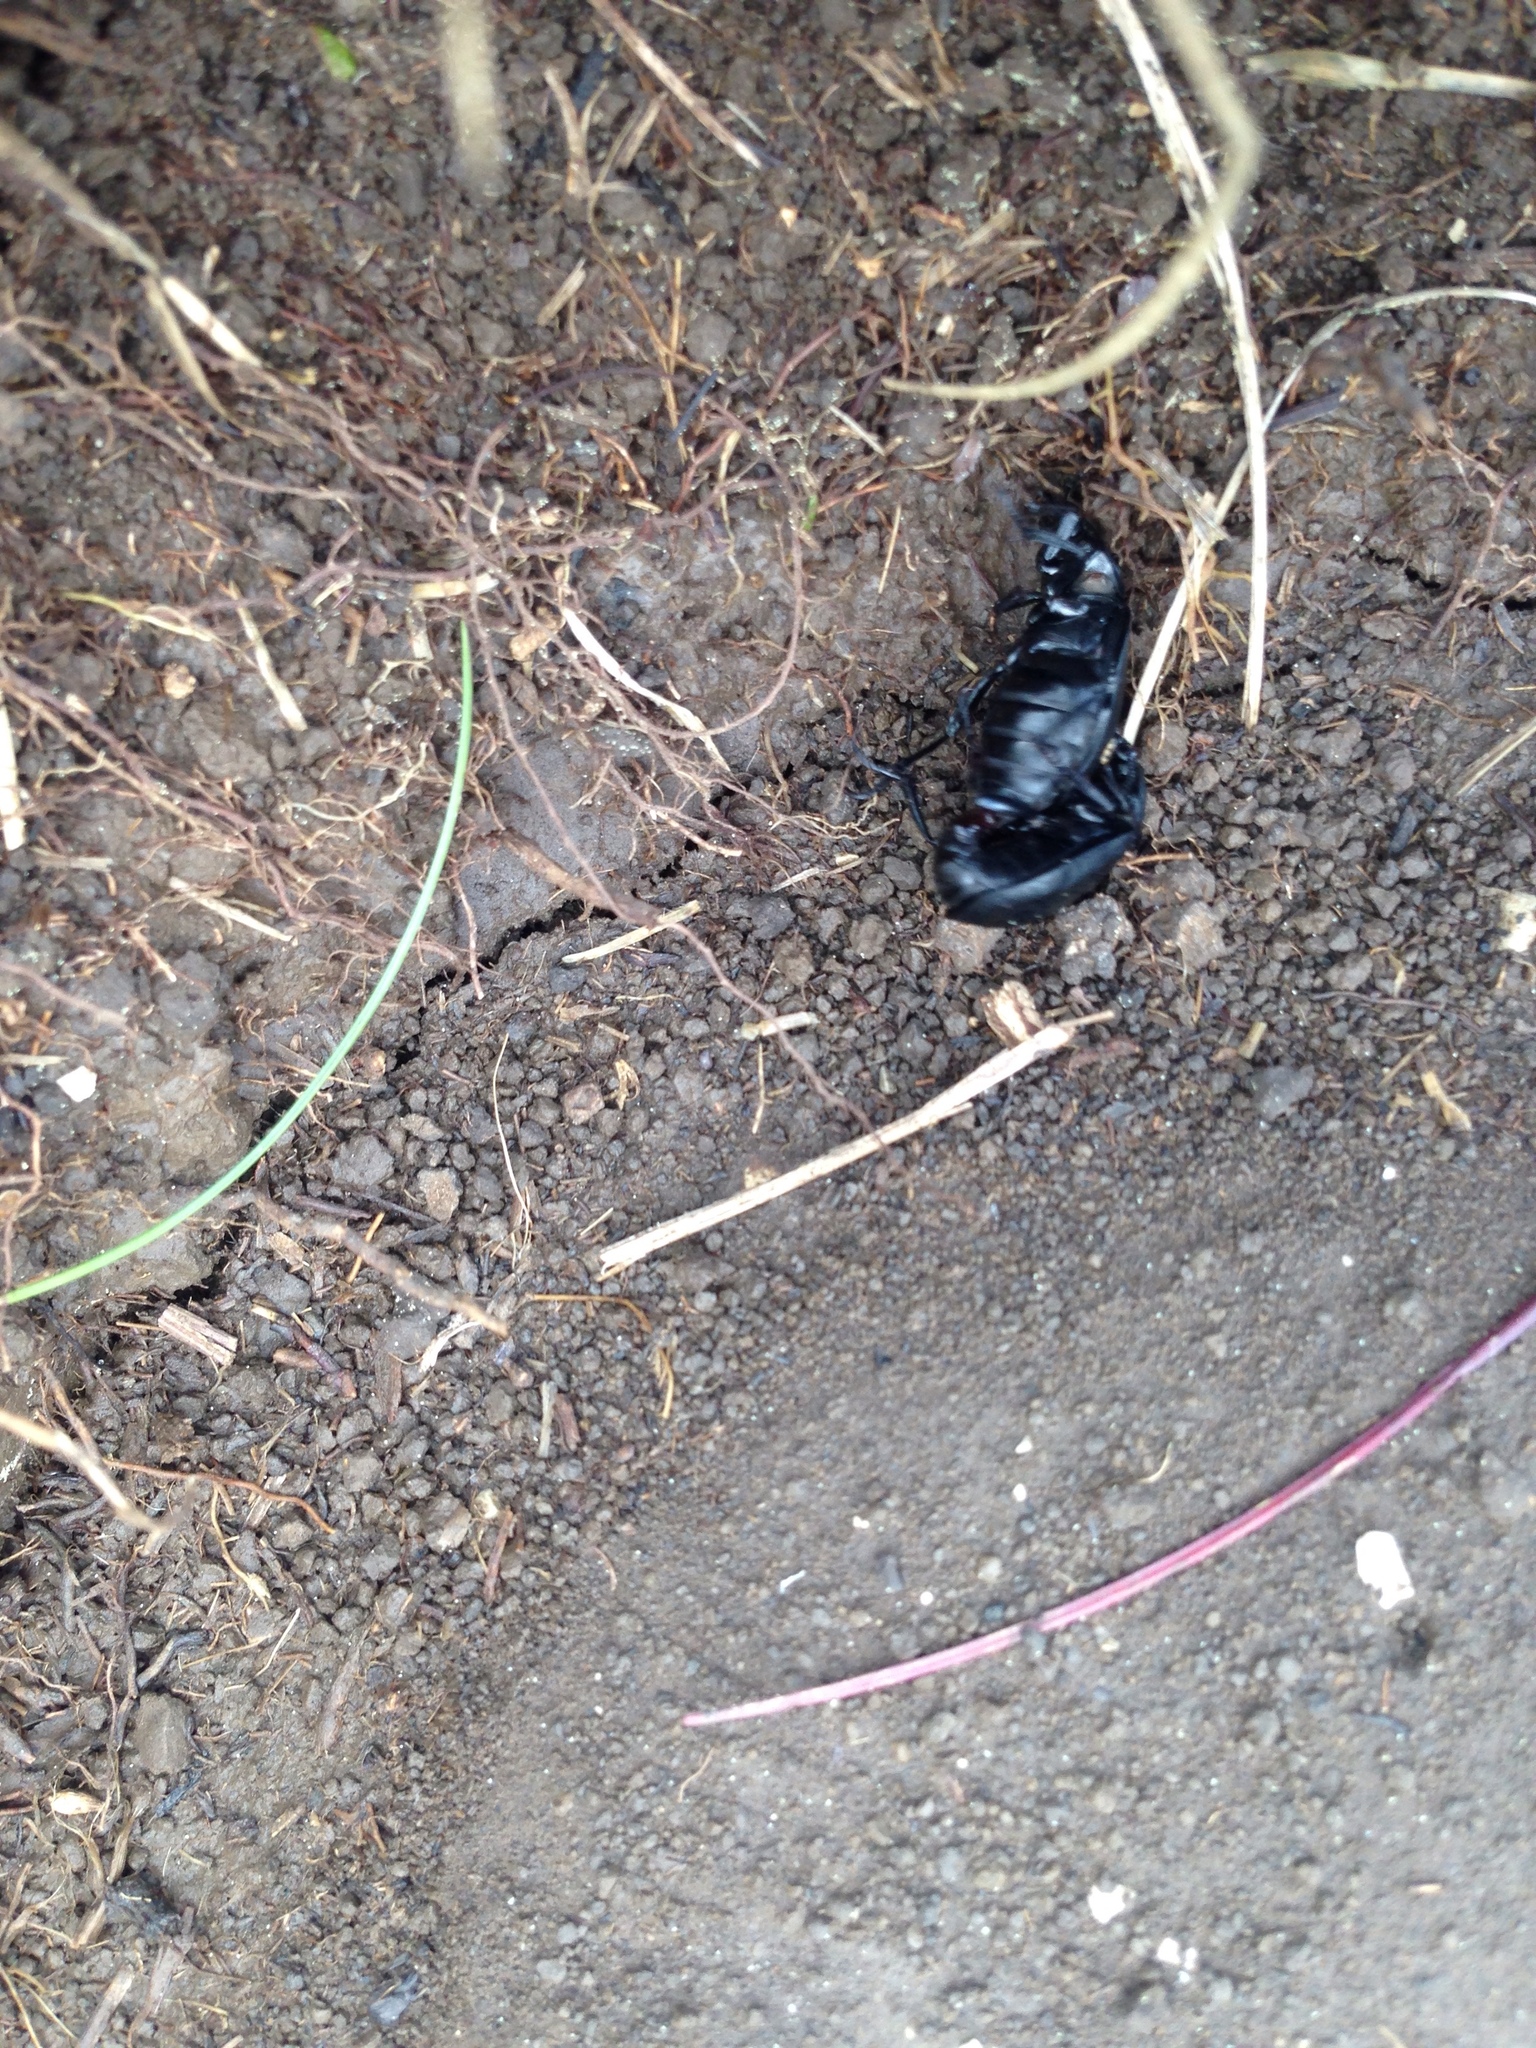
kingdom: Animalia
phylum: Arthropoda
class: Insecta
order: Coleoptera
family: Staphylinidae
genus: Silpha
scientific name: Silpha tyrolensis
